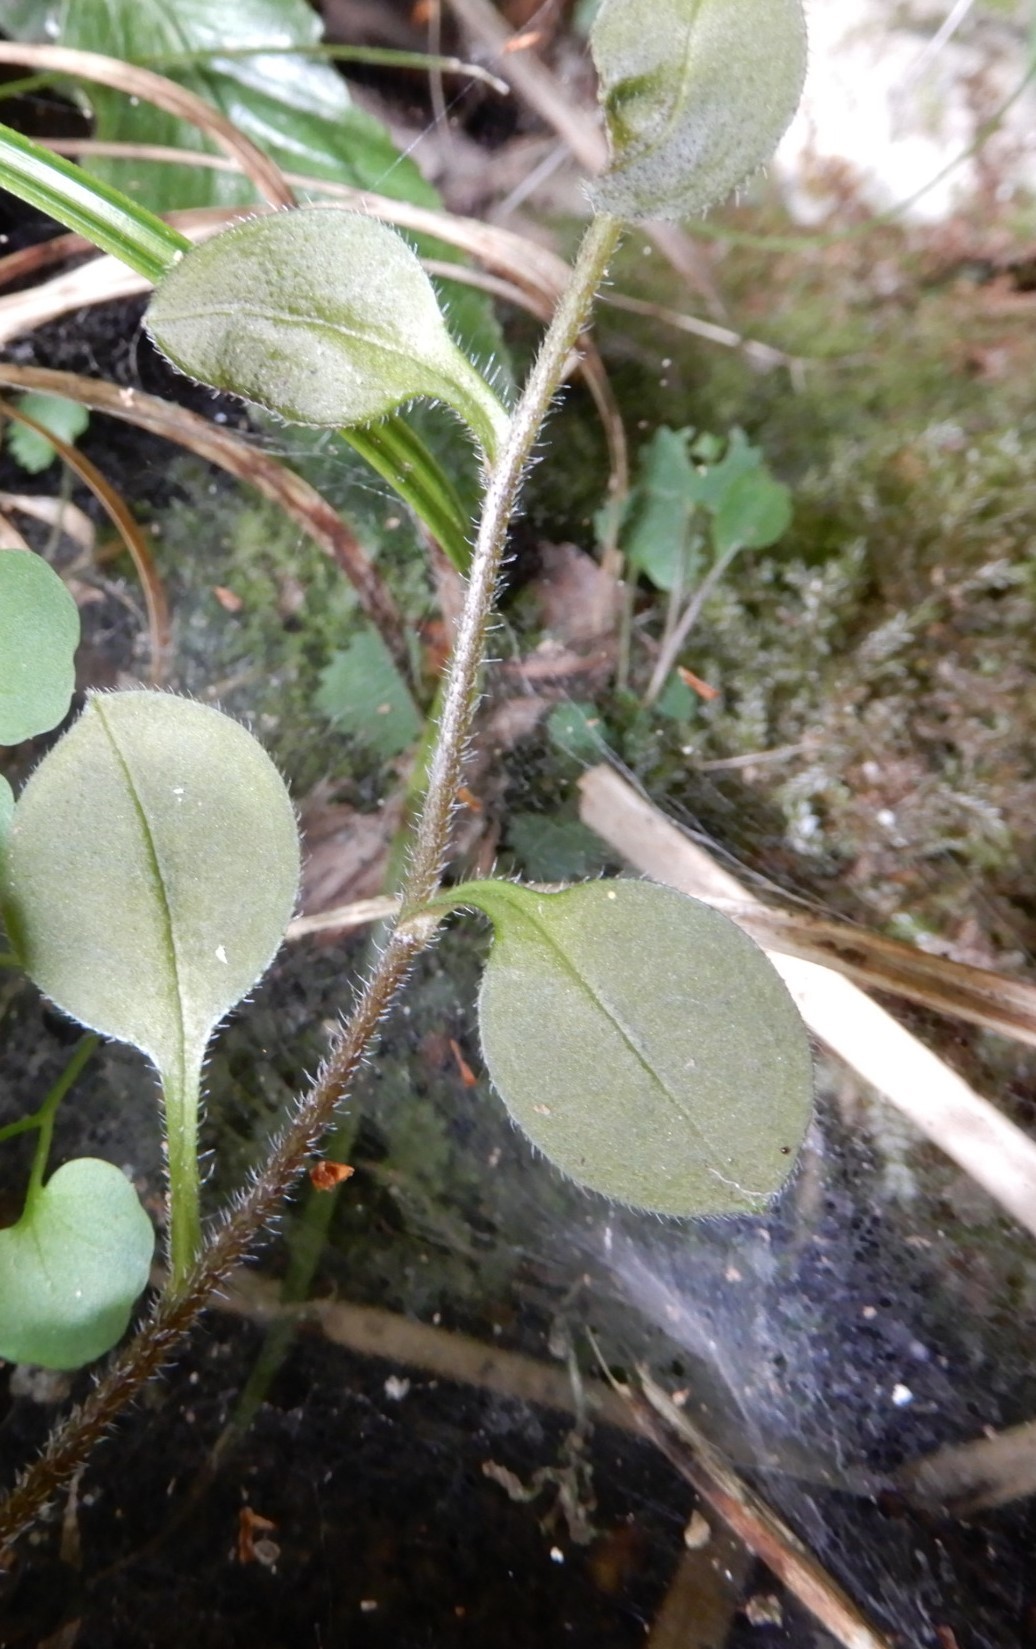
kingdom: Plantae
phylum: Tracheophyta
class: Magnoliopsida
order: Boraginales
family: Boraginaceae
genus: Myosotis
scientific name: Myosotis forsteri
